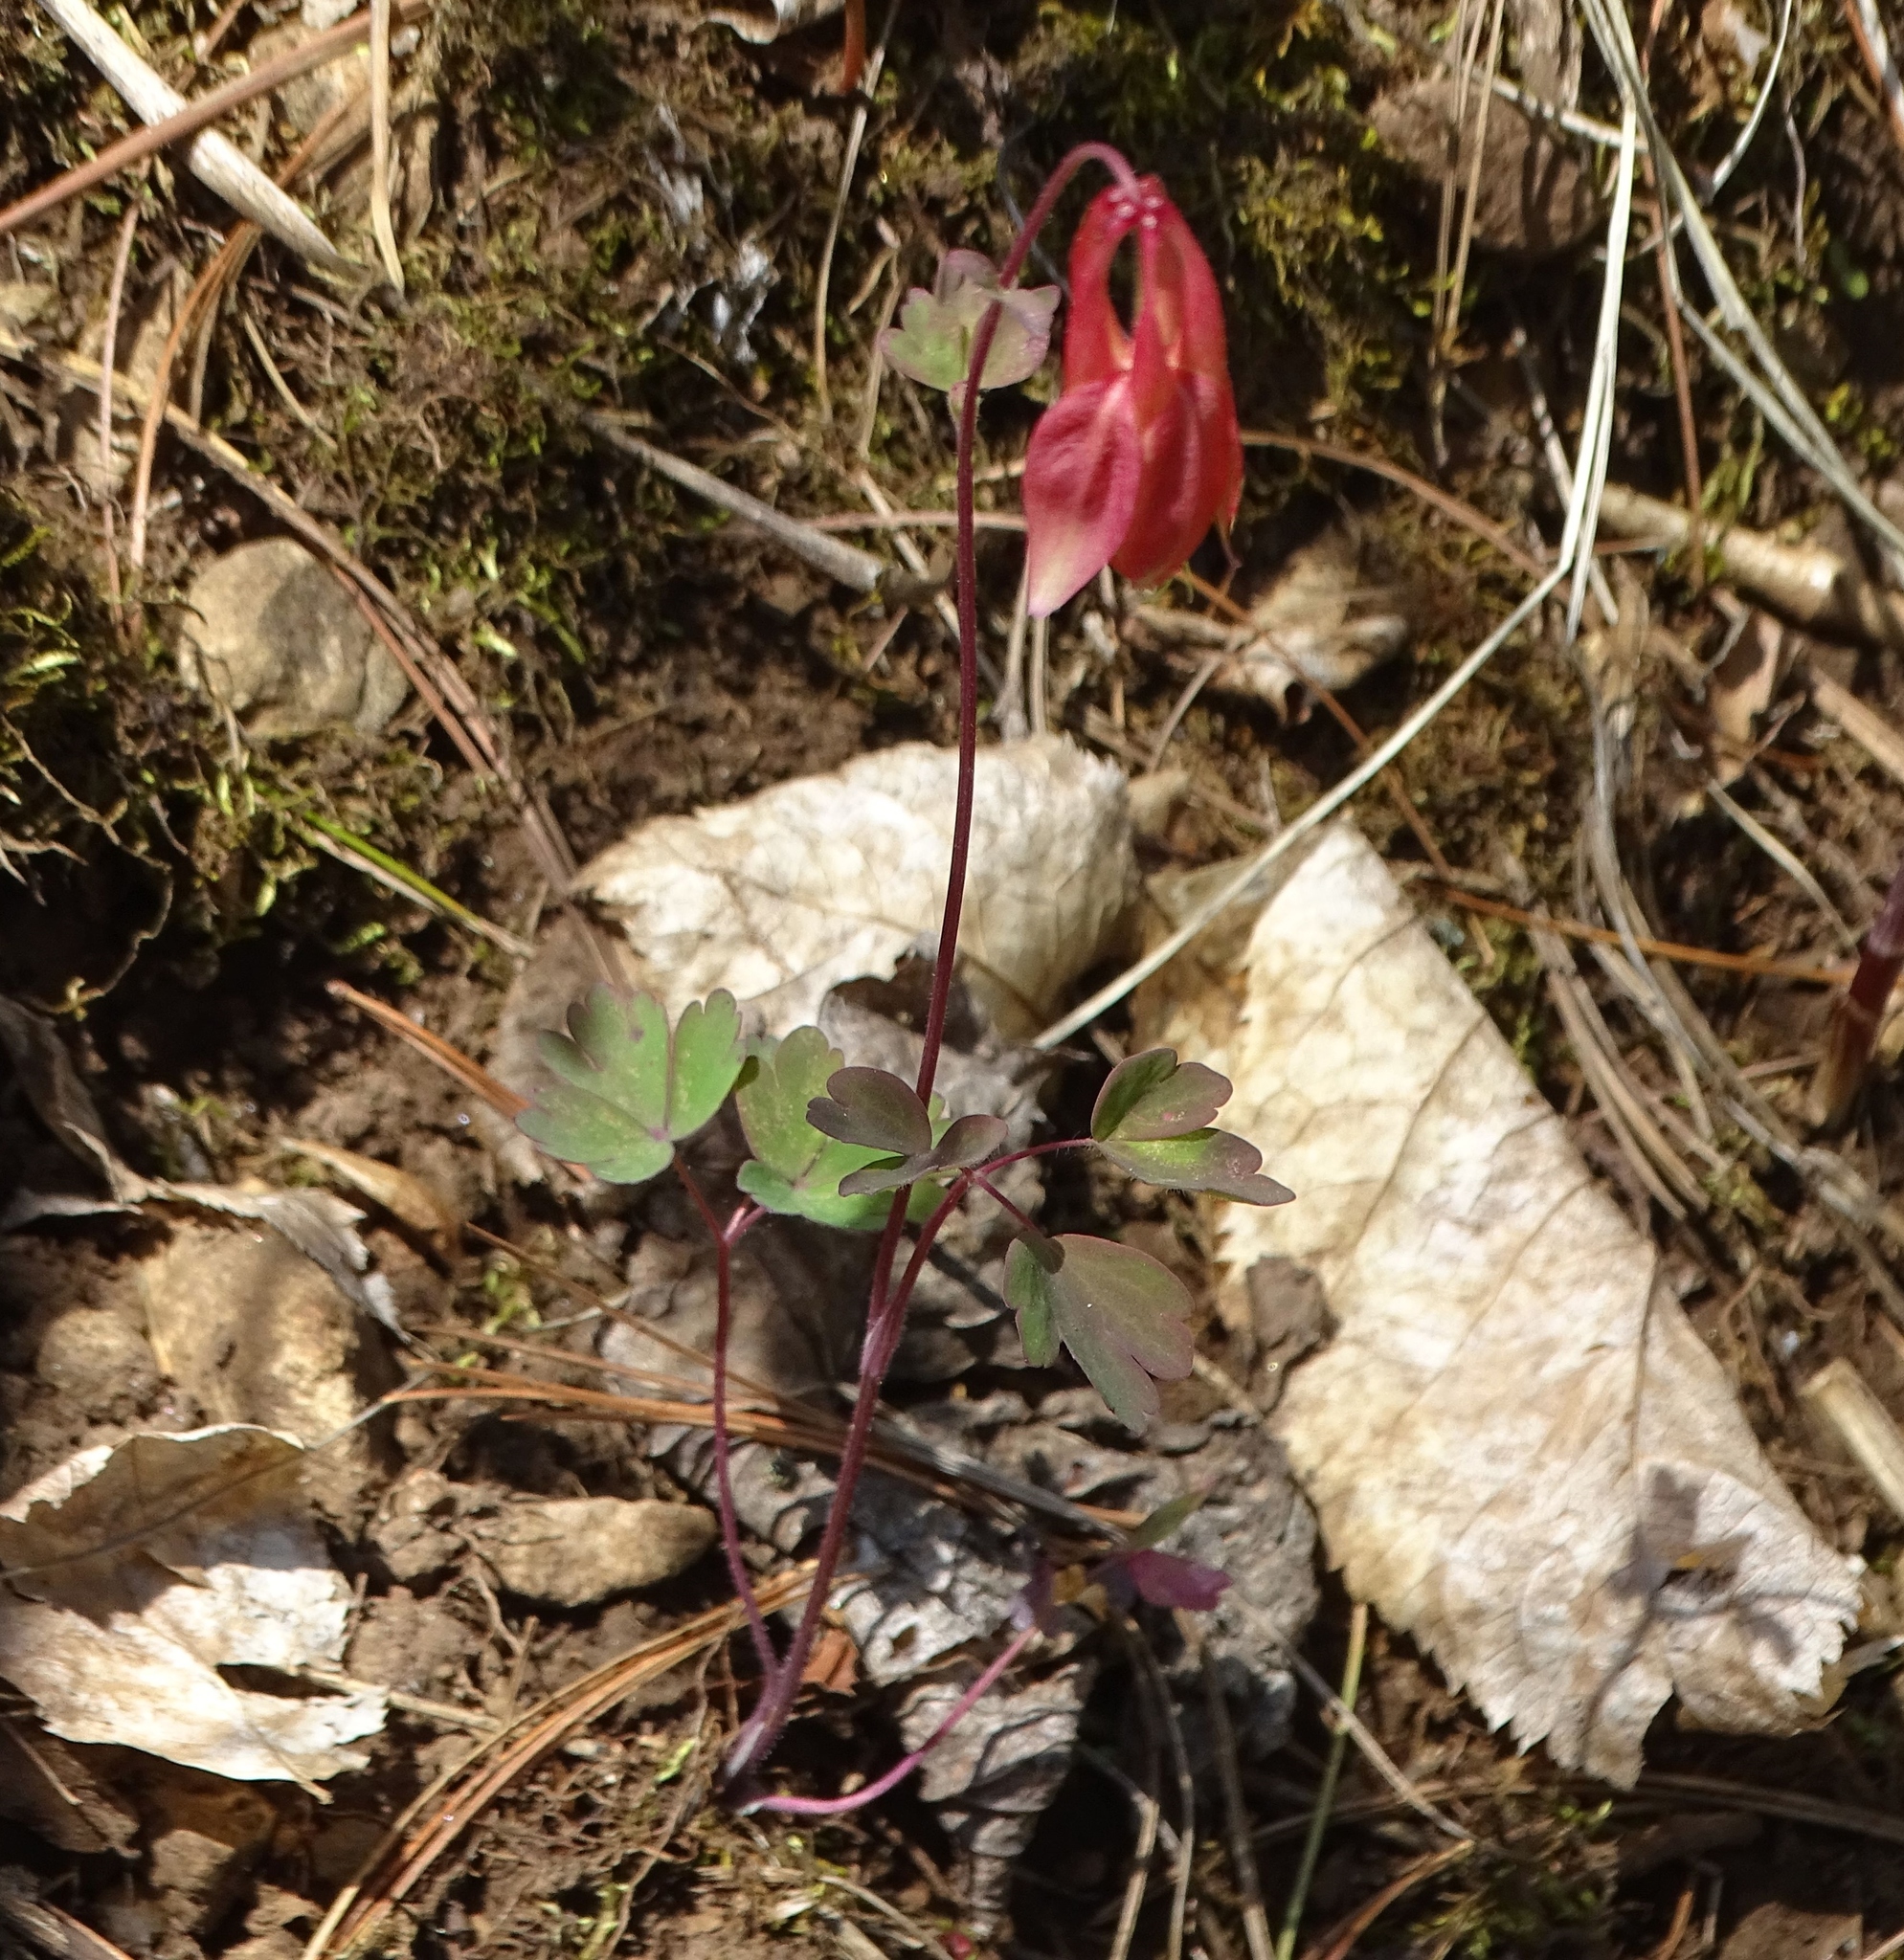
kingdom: Plantae
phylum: Tracheophyta
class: Magnoliopsida
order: Ranunculales
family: Ranunculaceae
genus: Aquilegia
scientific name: Aquilegia canadensis
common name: American columbine
